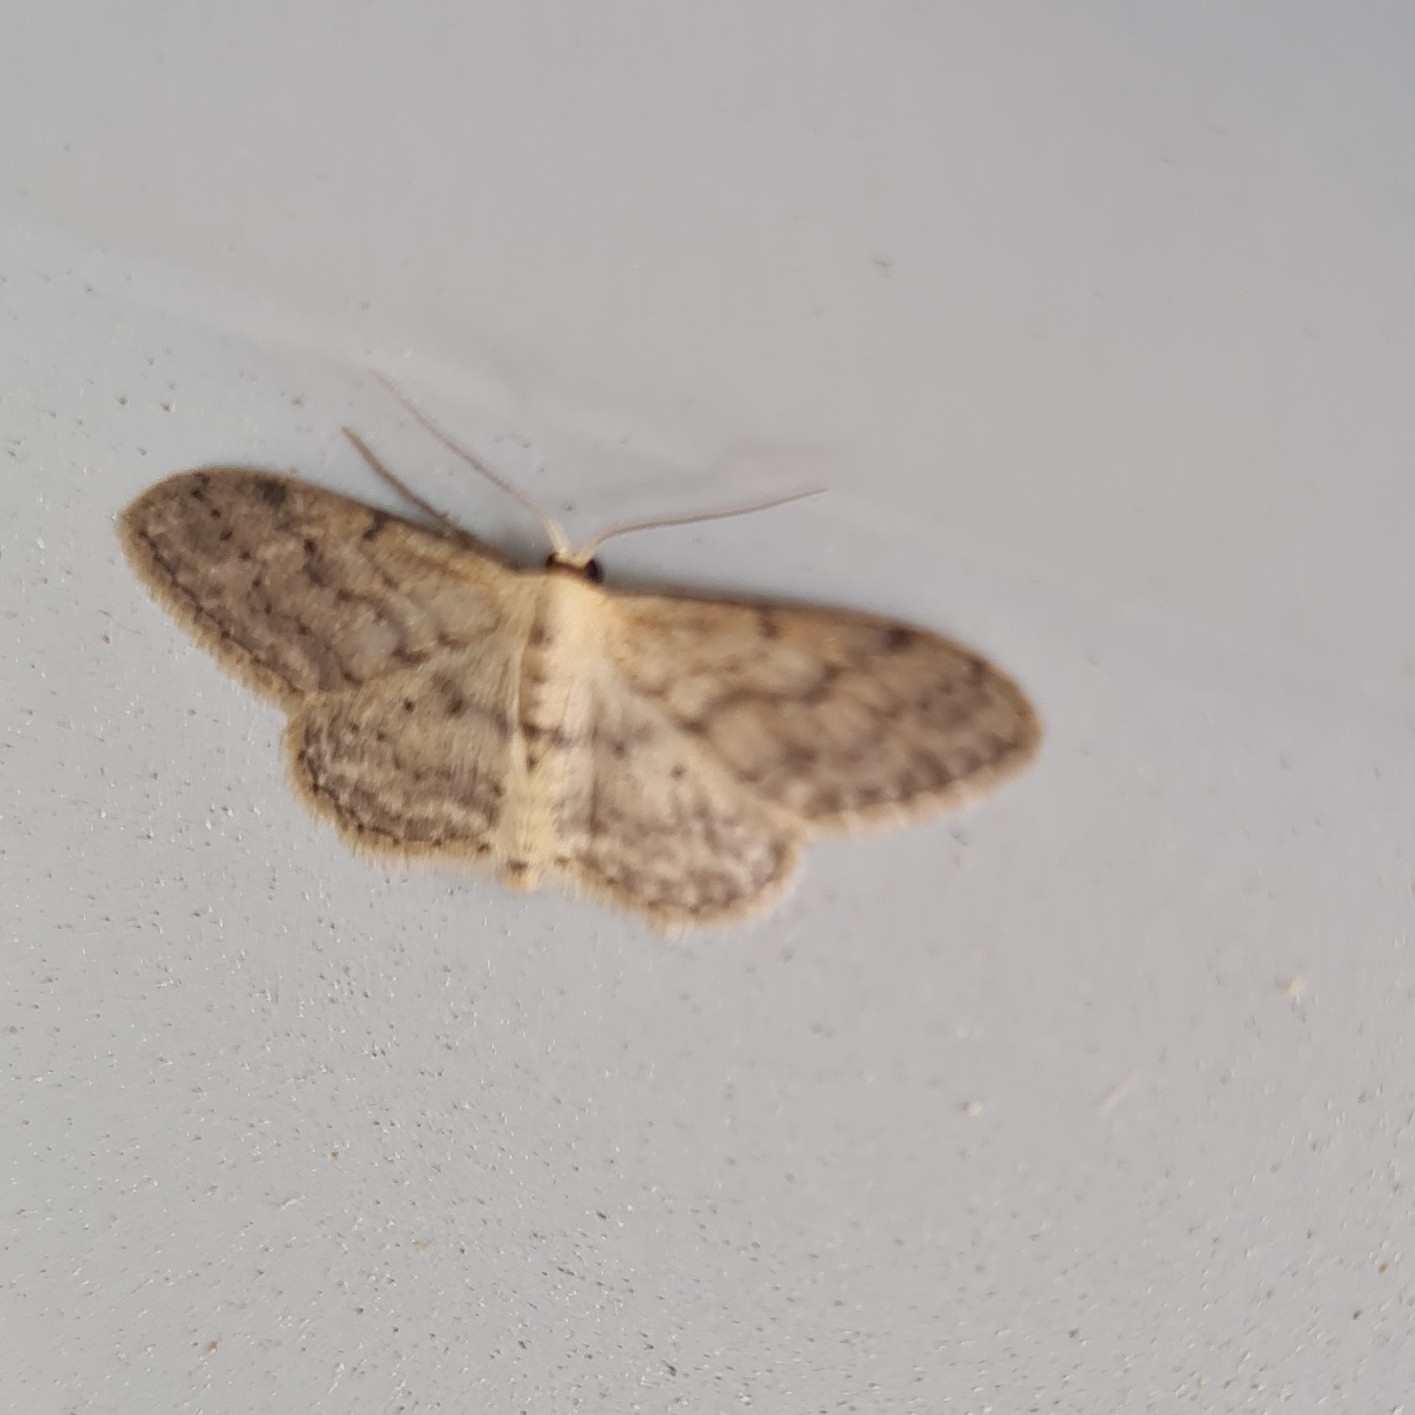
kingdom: Animalia
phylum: Arthropoda
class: Insecta
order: Lepidoptera
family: Geometridae
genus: Idaea
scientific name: Idaea seriata
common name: Small dusty wave
